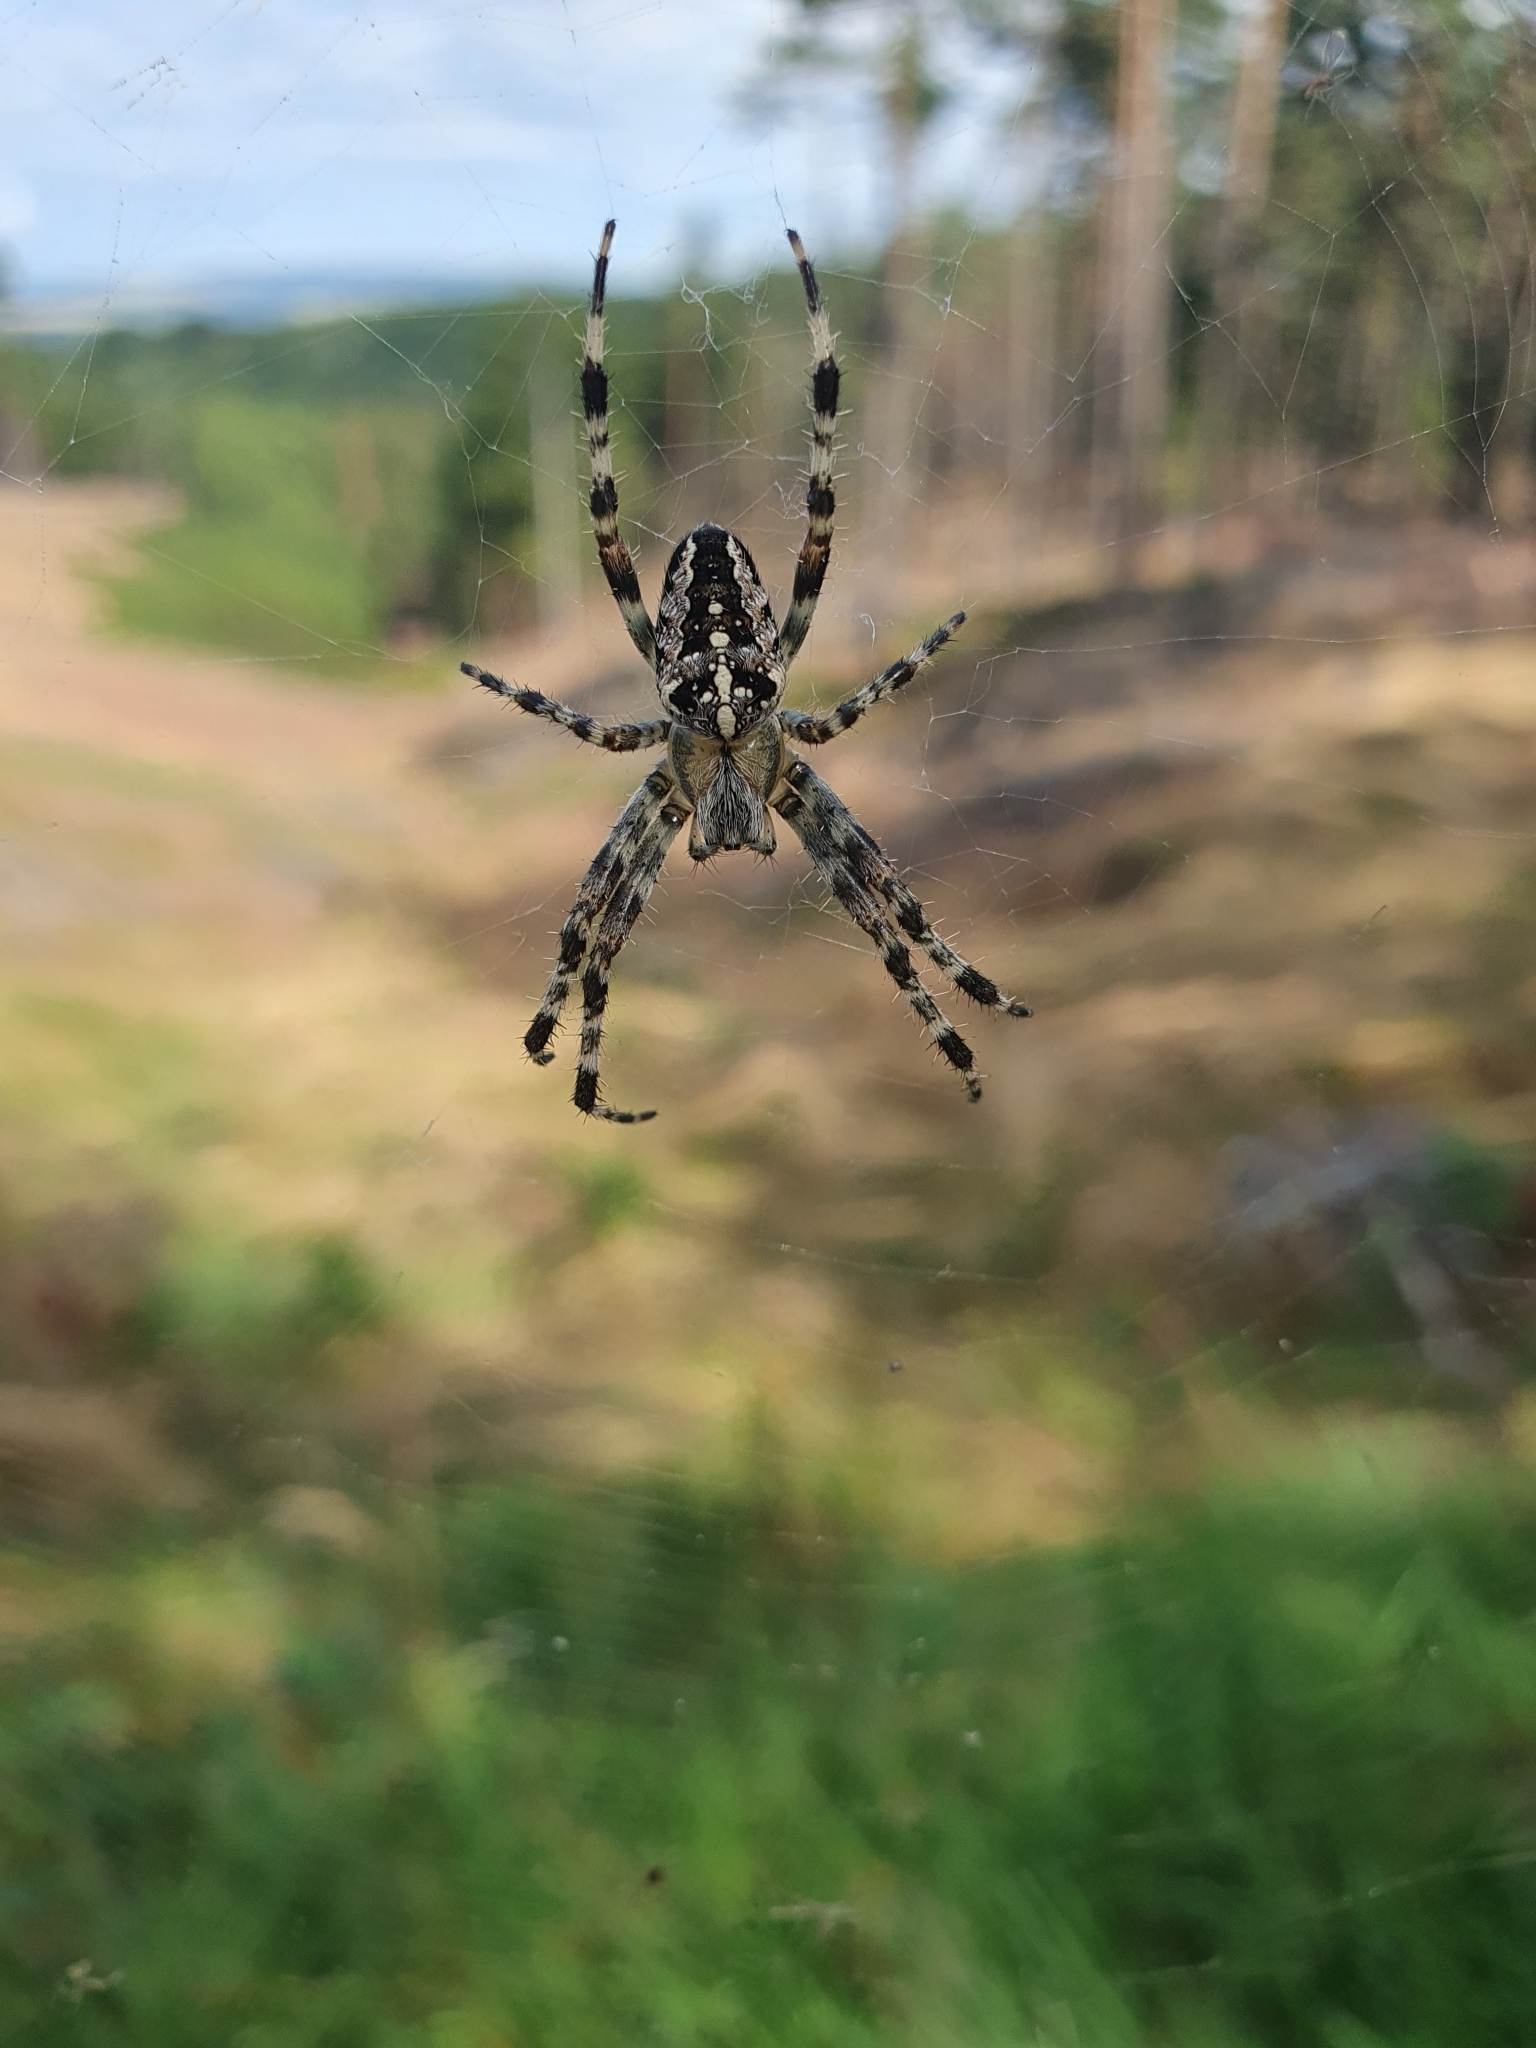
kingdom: Animalia
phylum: Arthropoda
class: Arachnida
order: Araneae
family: Araneidae
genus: Araneus
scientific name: Araneus diadematus
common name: Cross orbweaver
